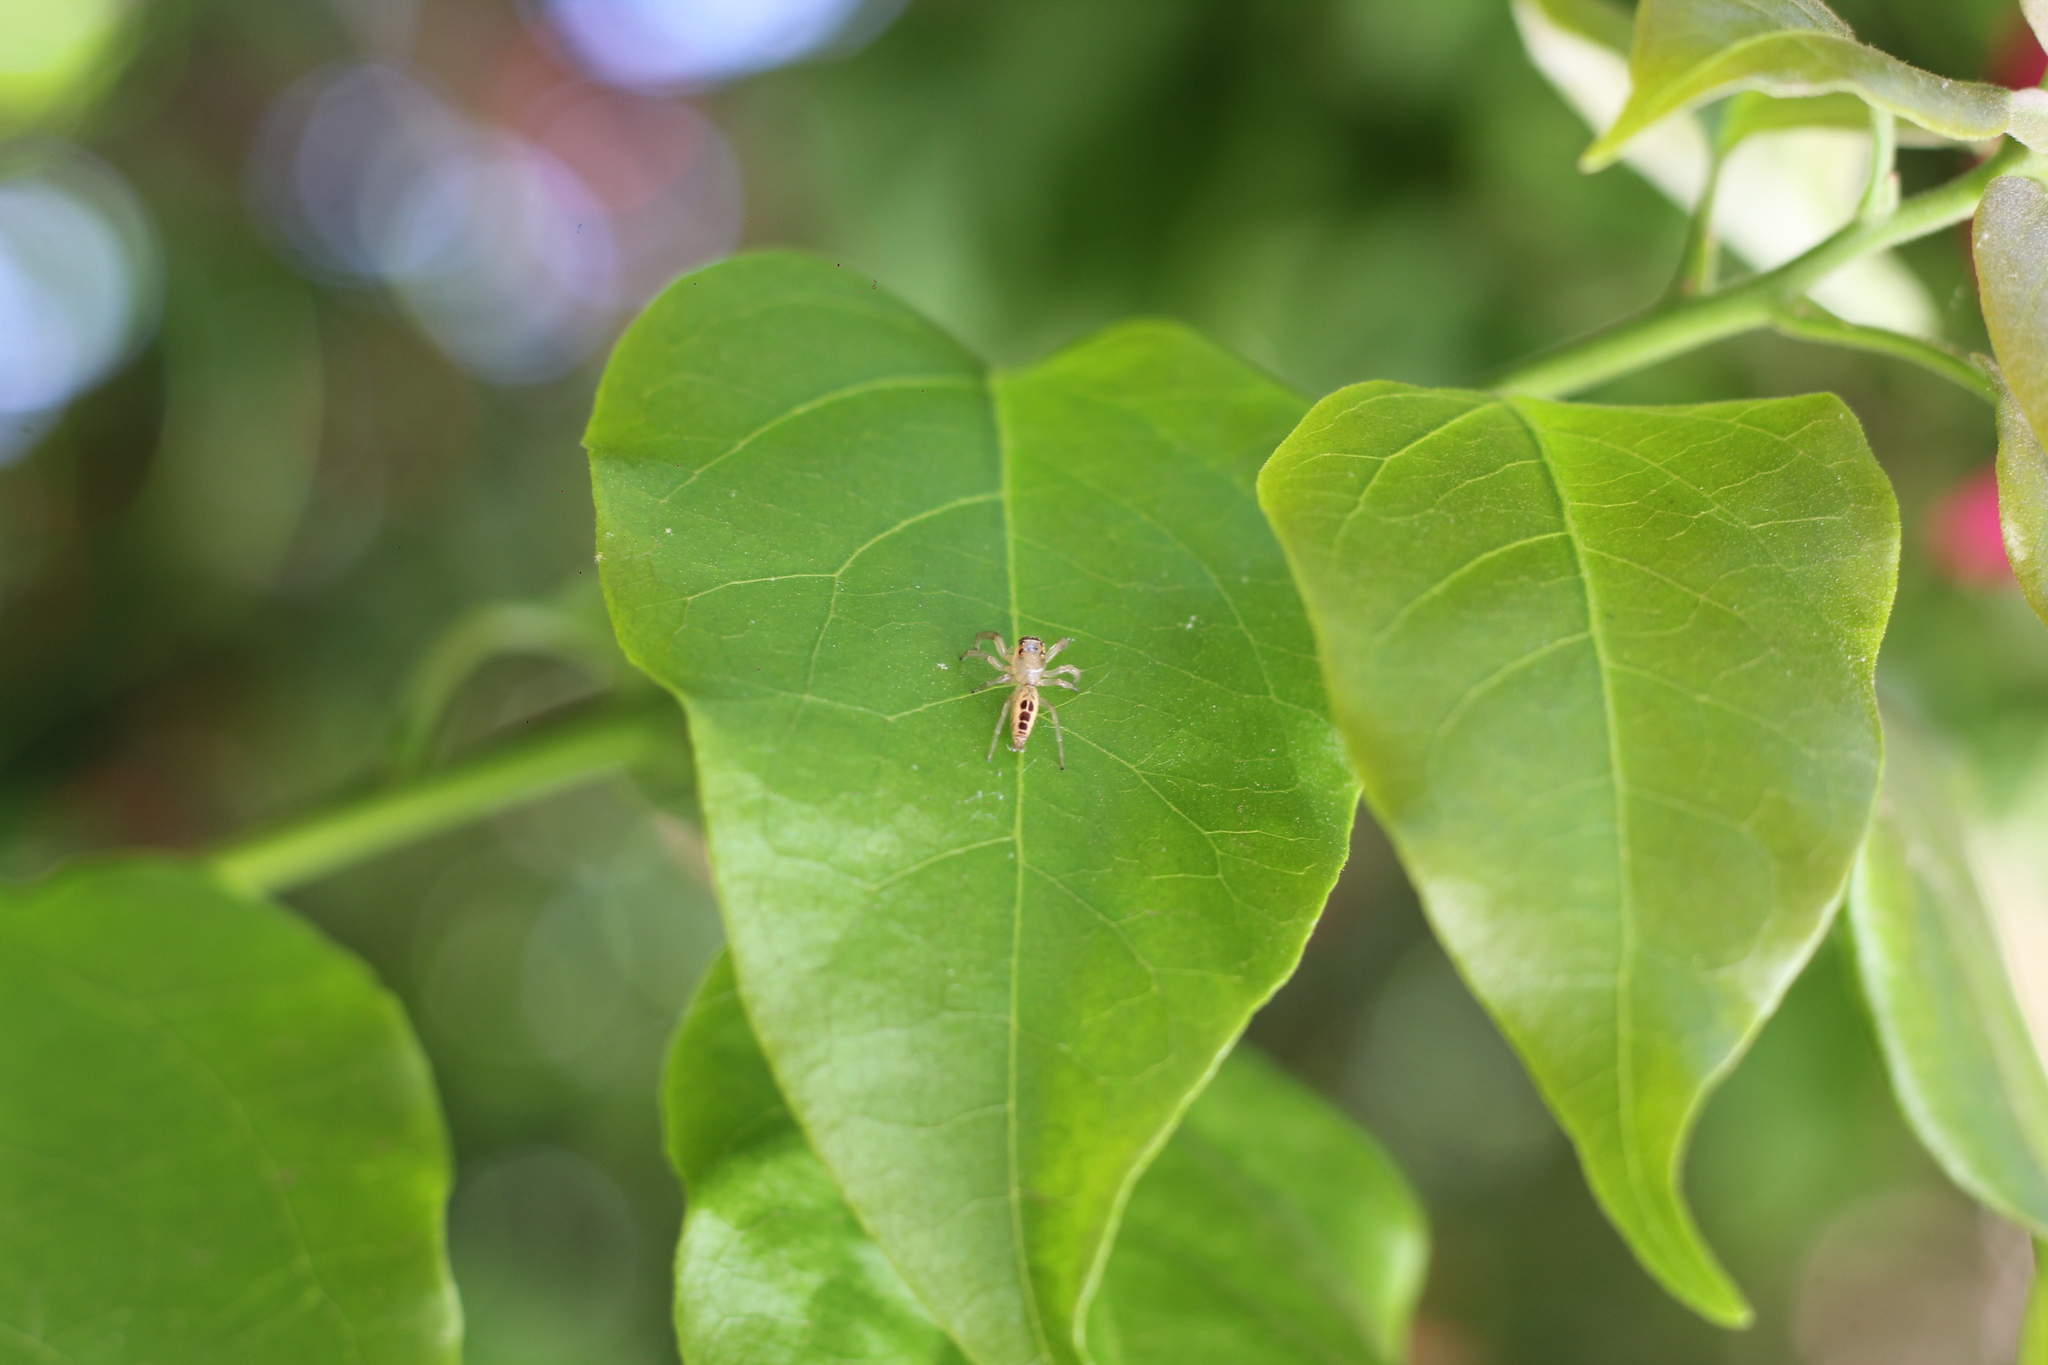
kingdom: Animalia
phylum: Arthropoda
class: Arachnida
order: Araneae
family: Salticidae
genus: Cotinusa
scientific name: Cotinusa vittata
